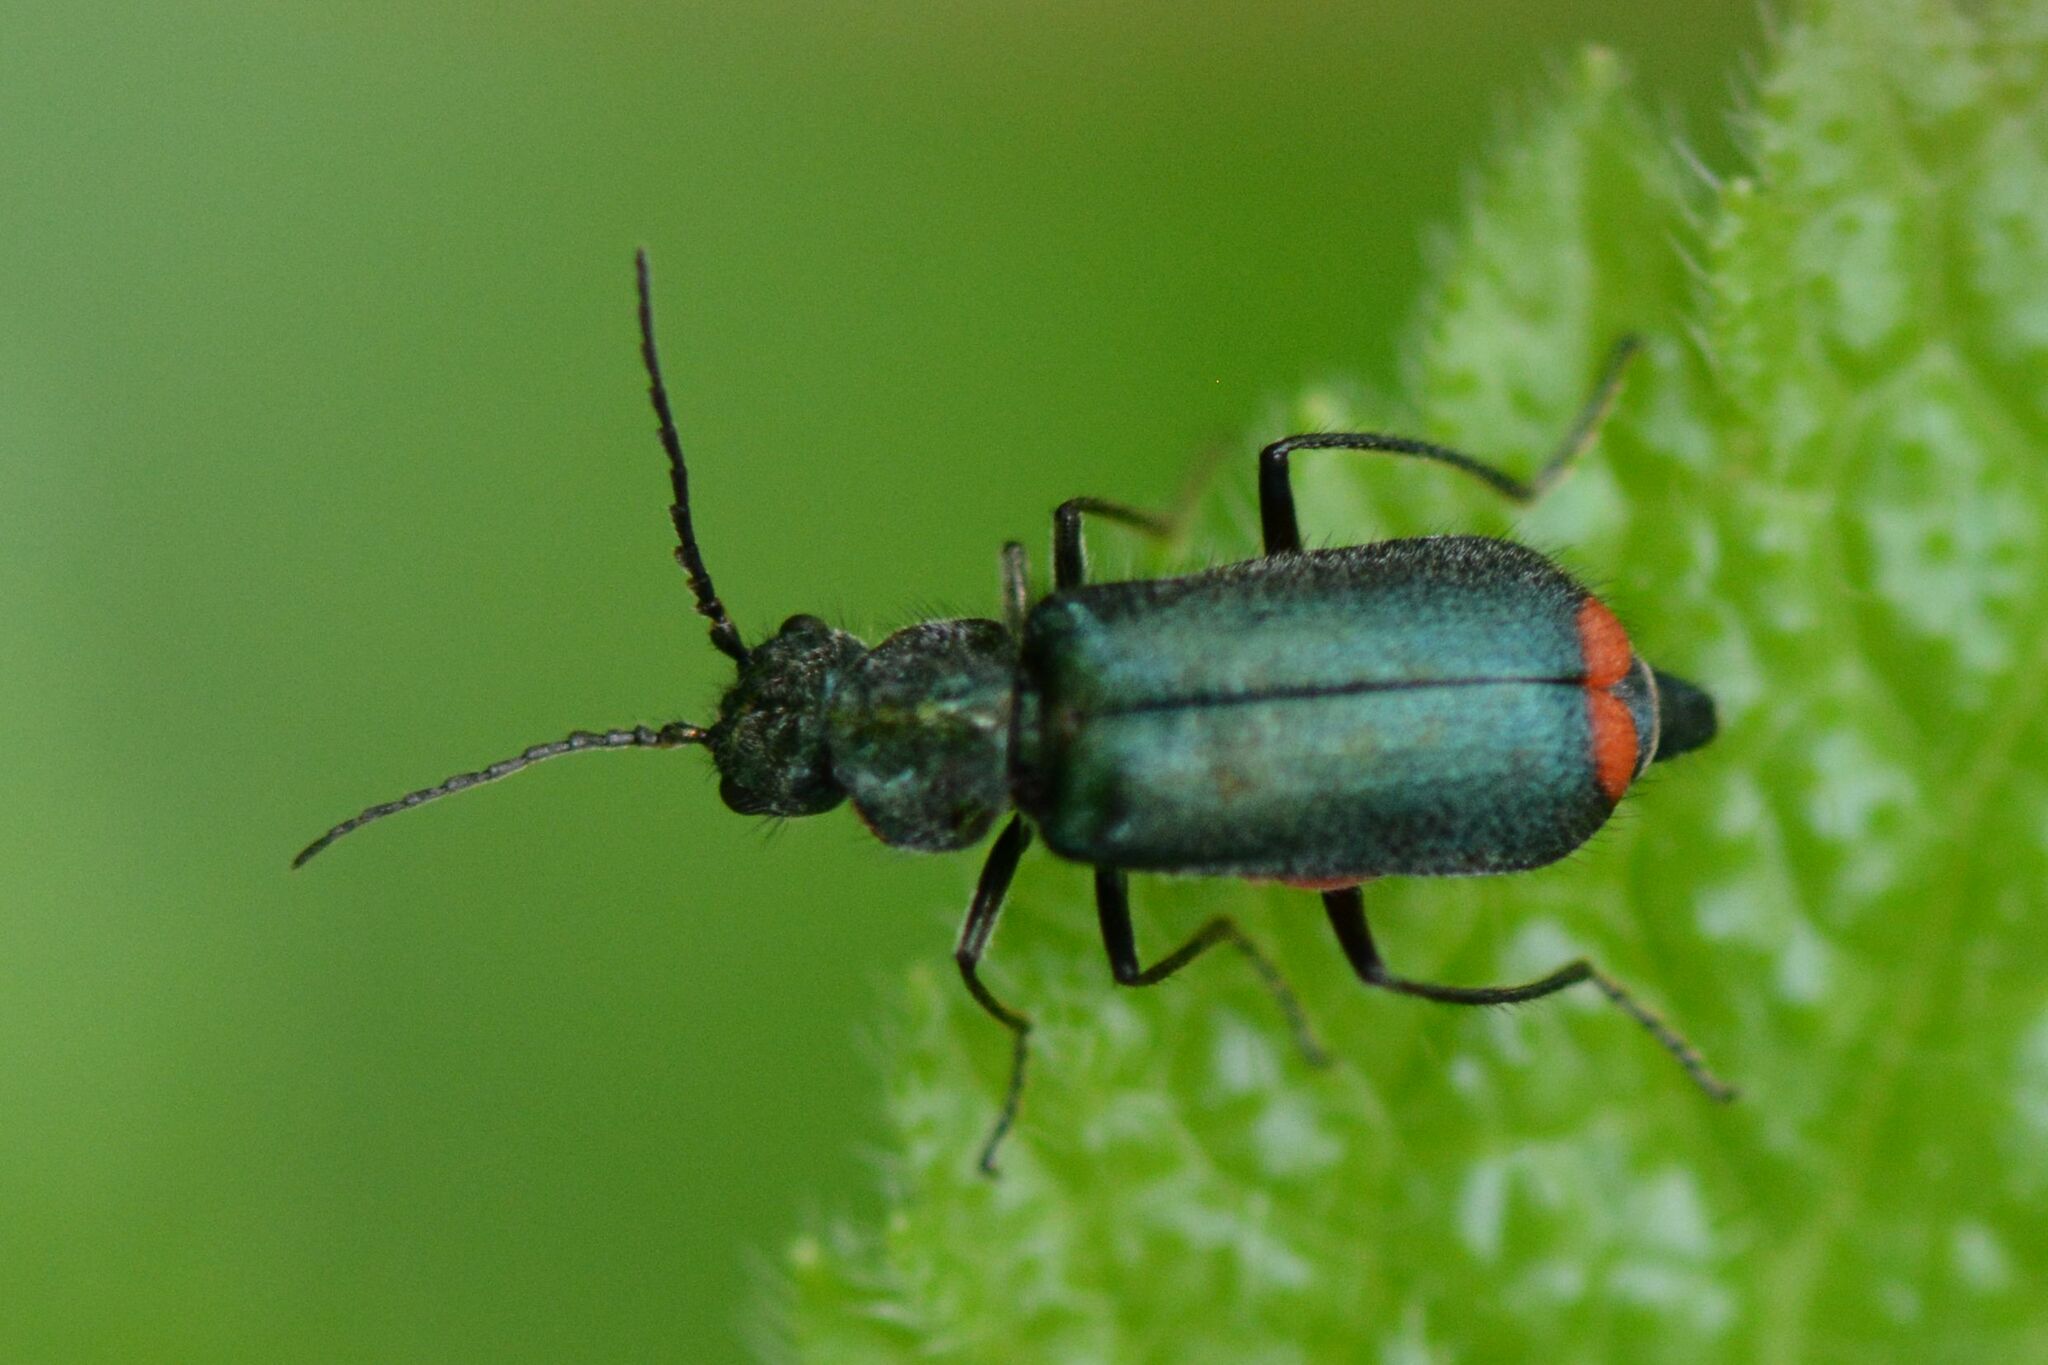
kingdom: Animalia
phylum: Arthropoda
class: Insecta
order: Coleoptera
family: Melyridae
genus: Malachius
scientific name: Malachius bipustulatus
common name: Malachite beetle
